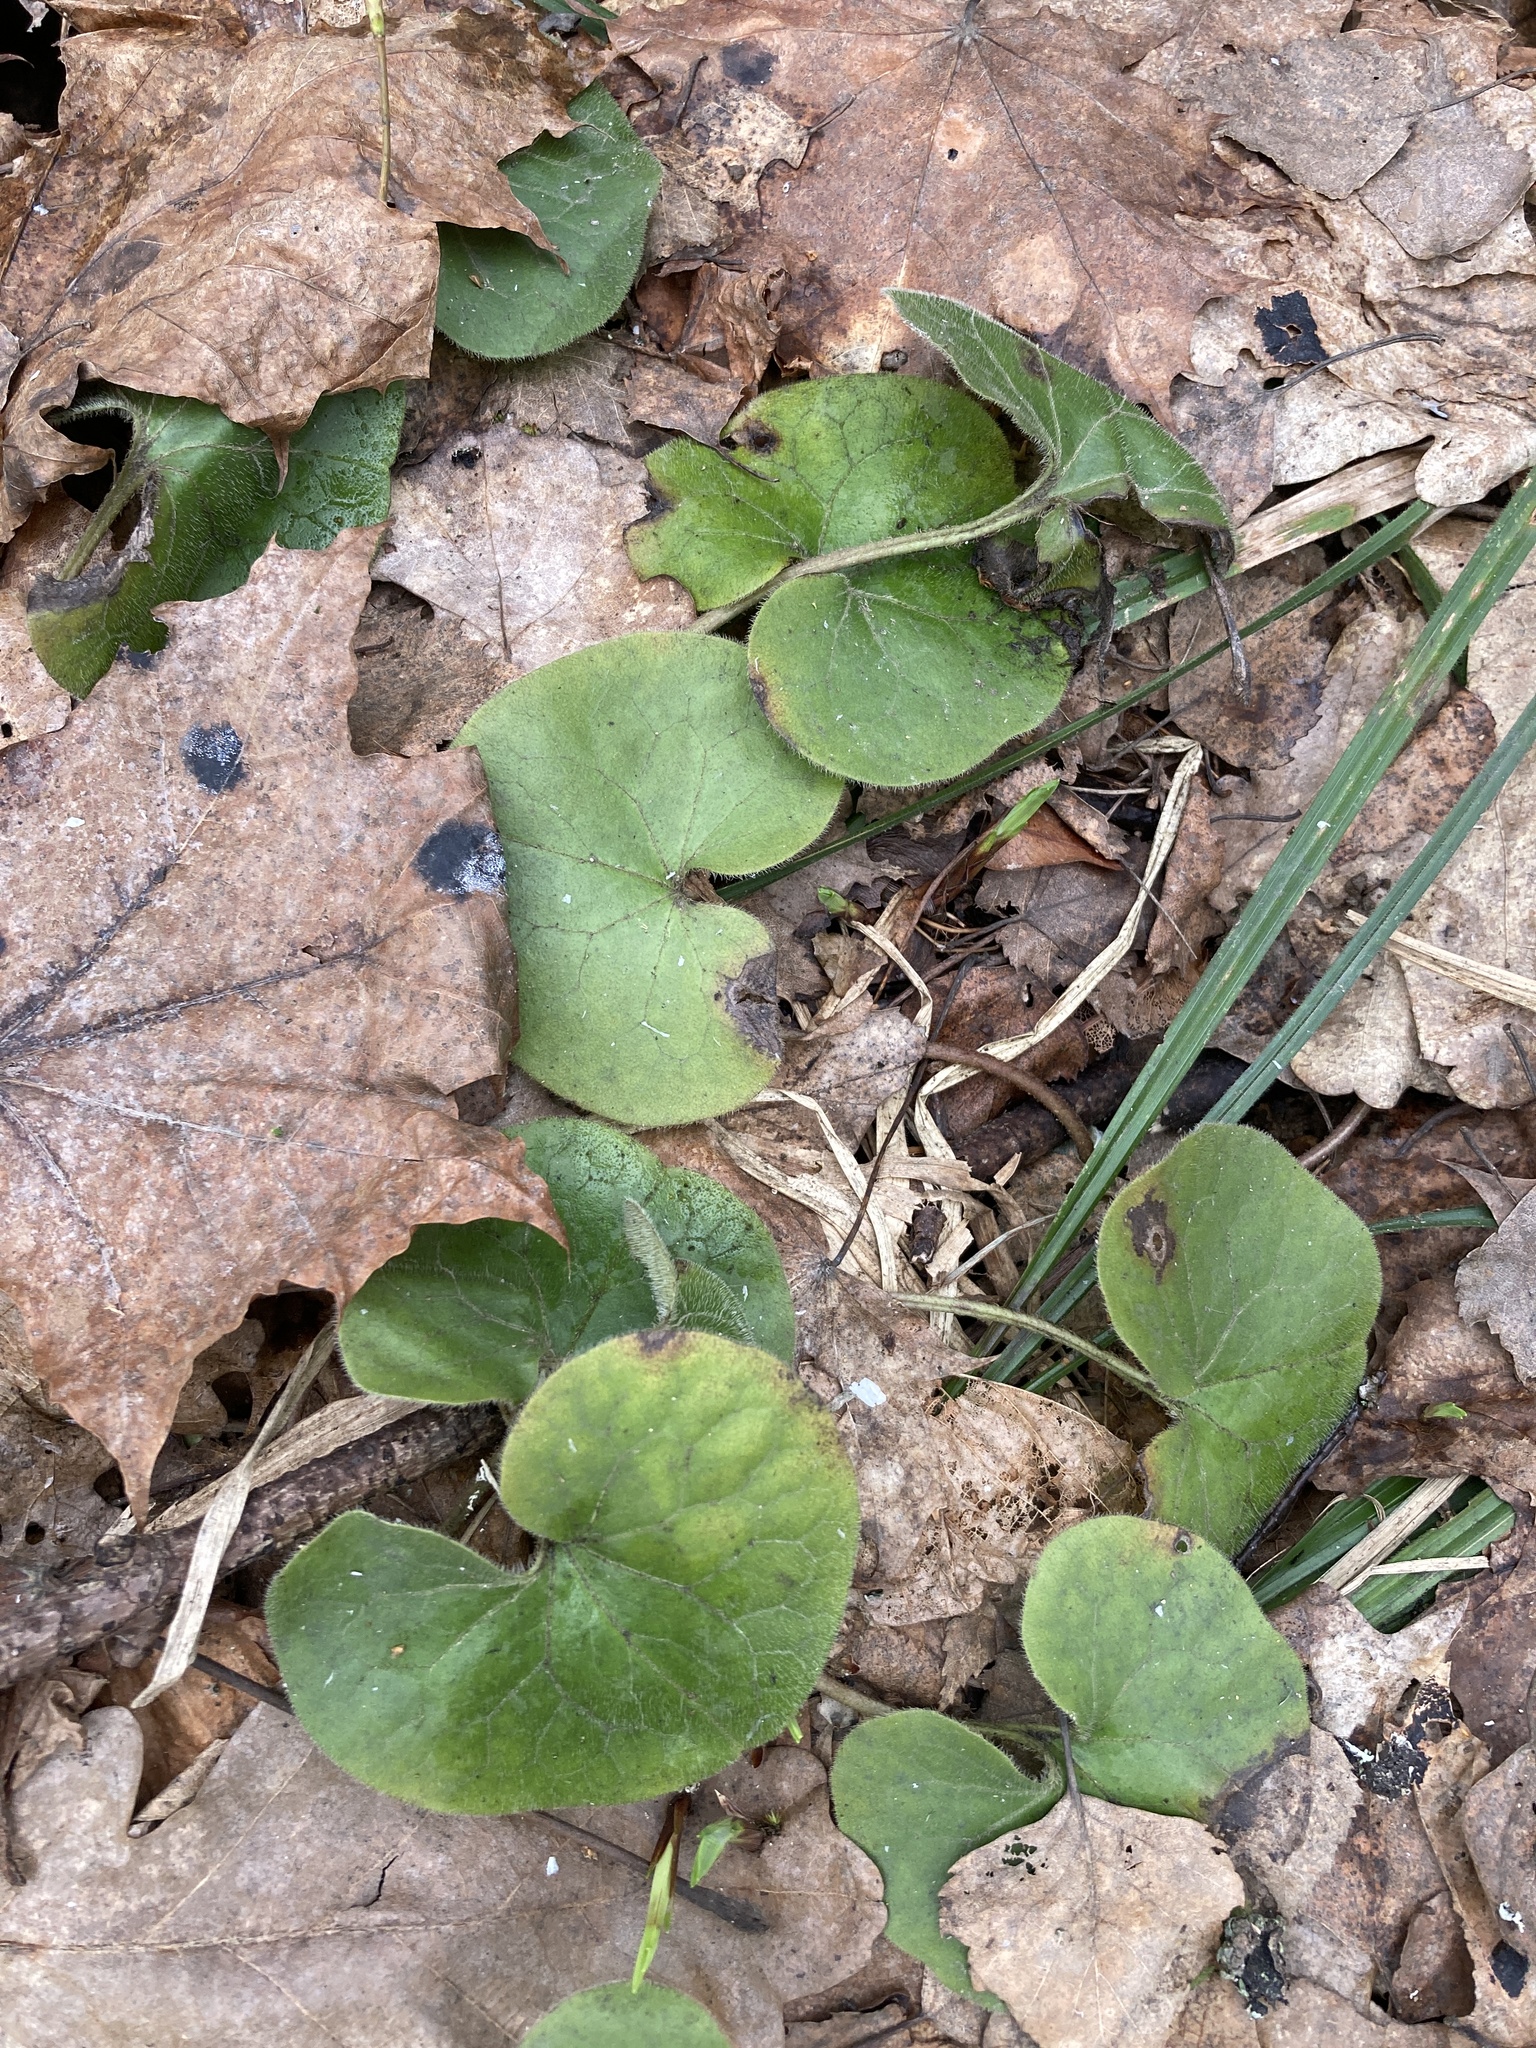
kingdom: Plantae
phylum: Tracheophyta
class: Magnoliopsida
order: Piperales
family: Aristolochiaceae
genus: Asarum
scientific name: Asarum europaeum
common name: Asarabacca
